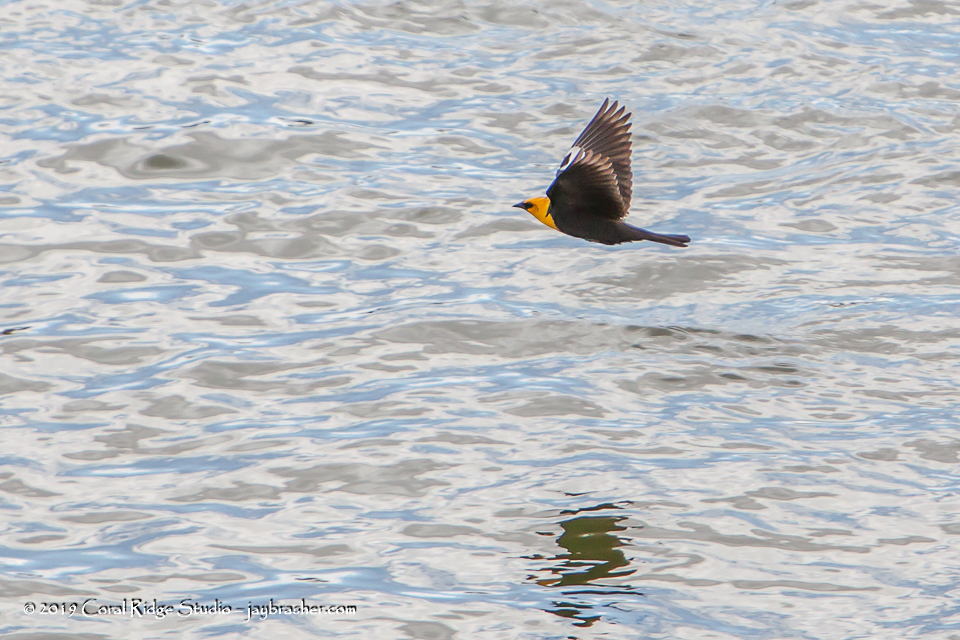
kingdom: Animalia
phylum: Chordata
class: Aves
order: Passeriformes
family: Icteridae
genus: Xanthocephalus
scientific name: Xanthocephalus xanthocephalus
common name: Yellow-headed blackbird
